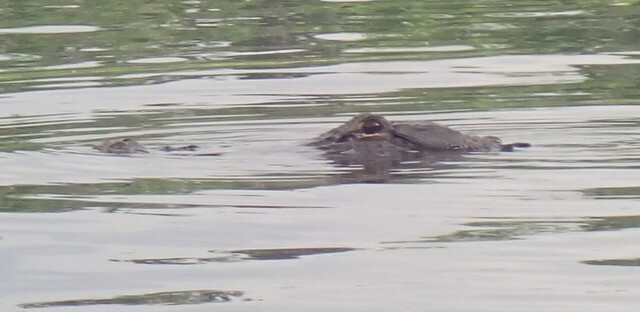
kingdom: Animalia
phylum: Chordata
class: Crocodylia
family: Alligatoridae
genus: Alligator
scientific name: Alligator mississippiensis
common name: American alligator
